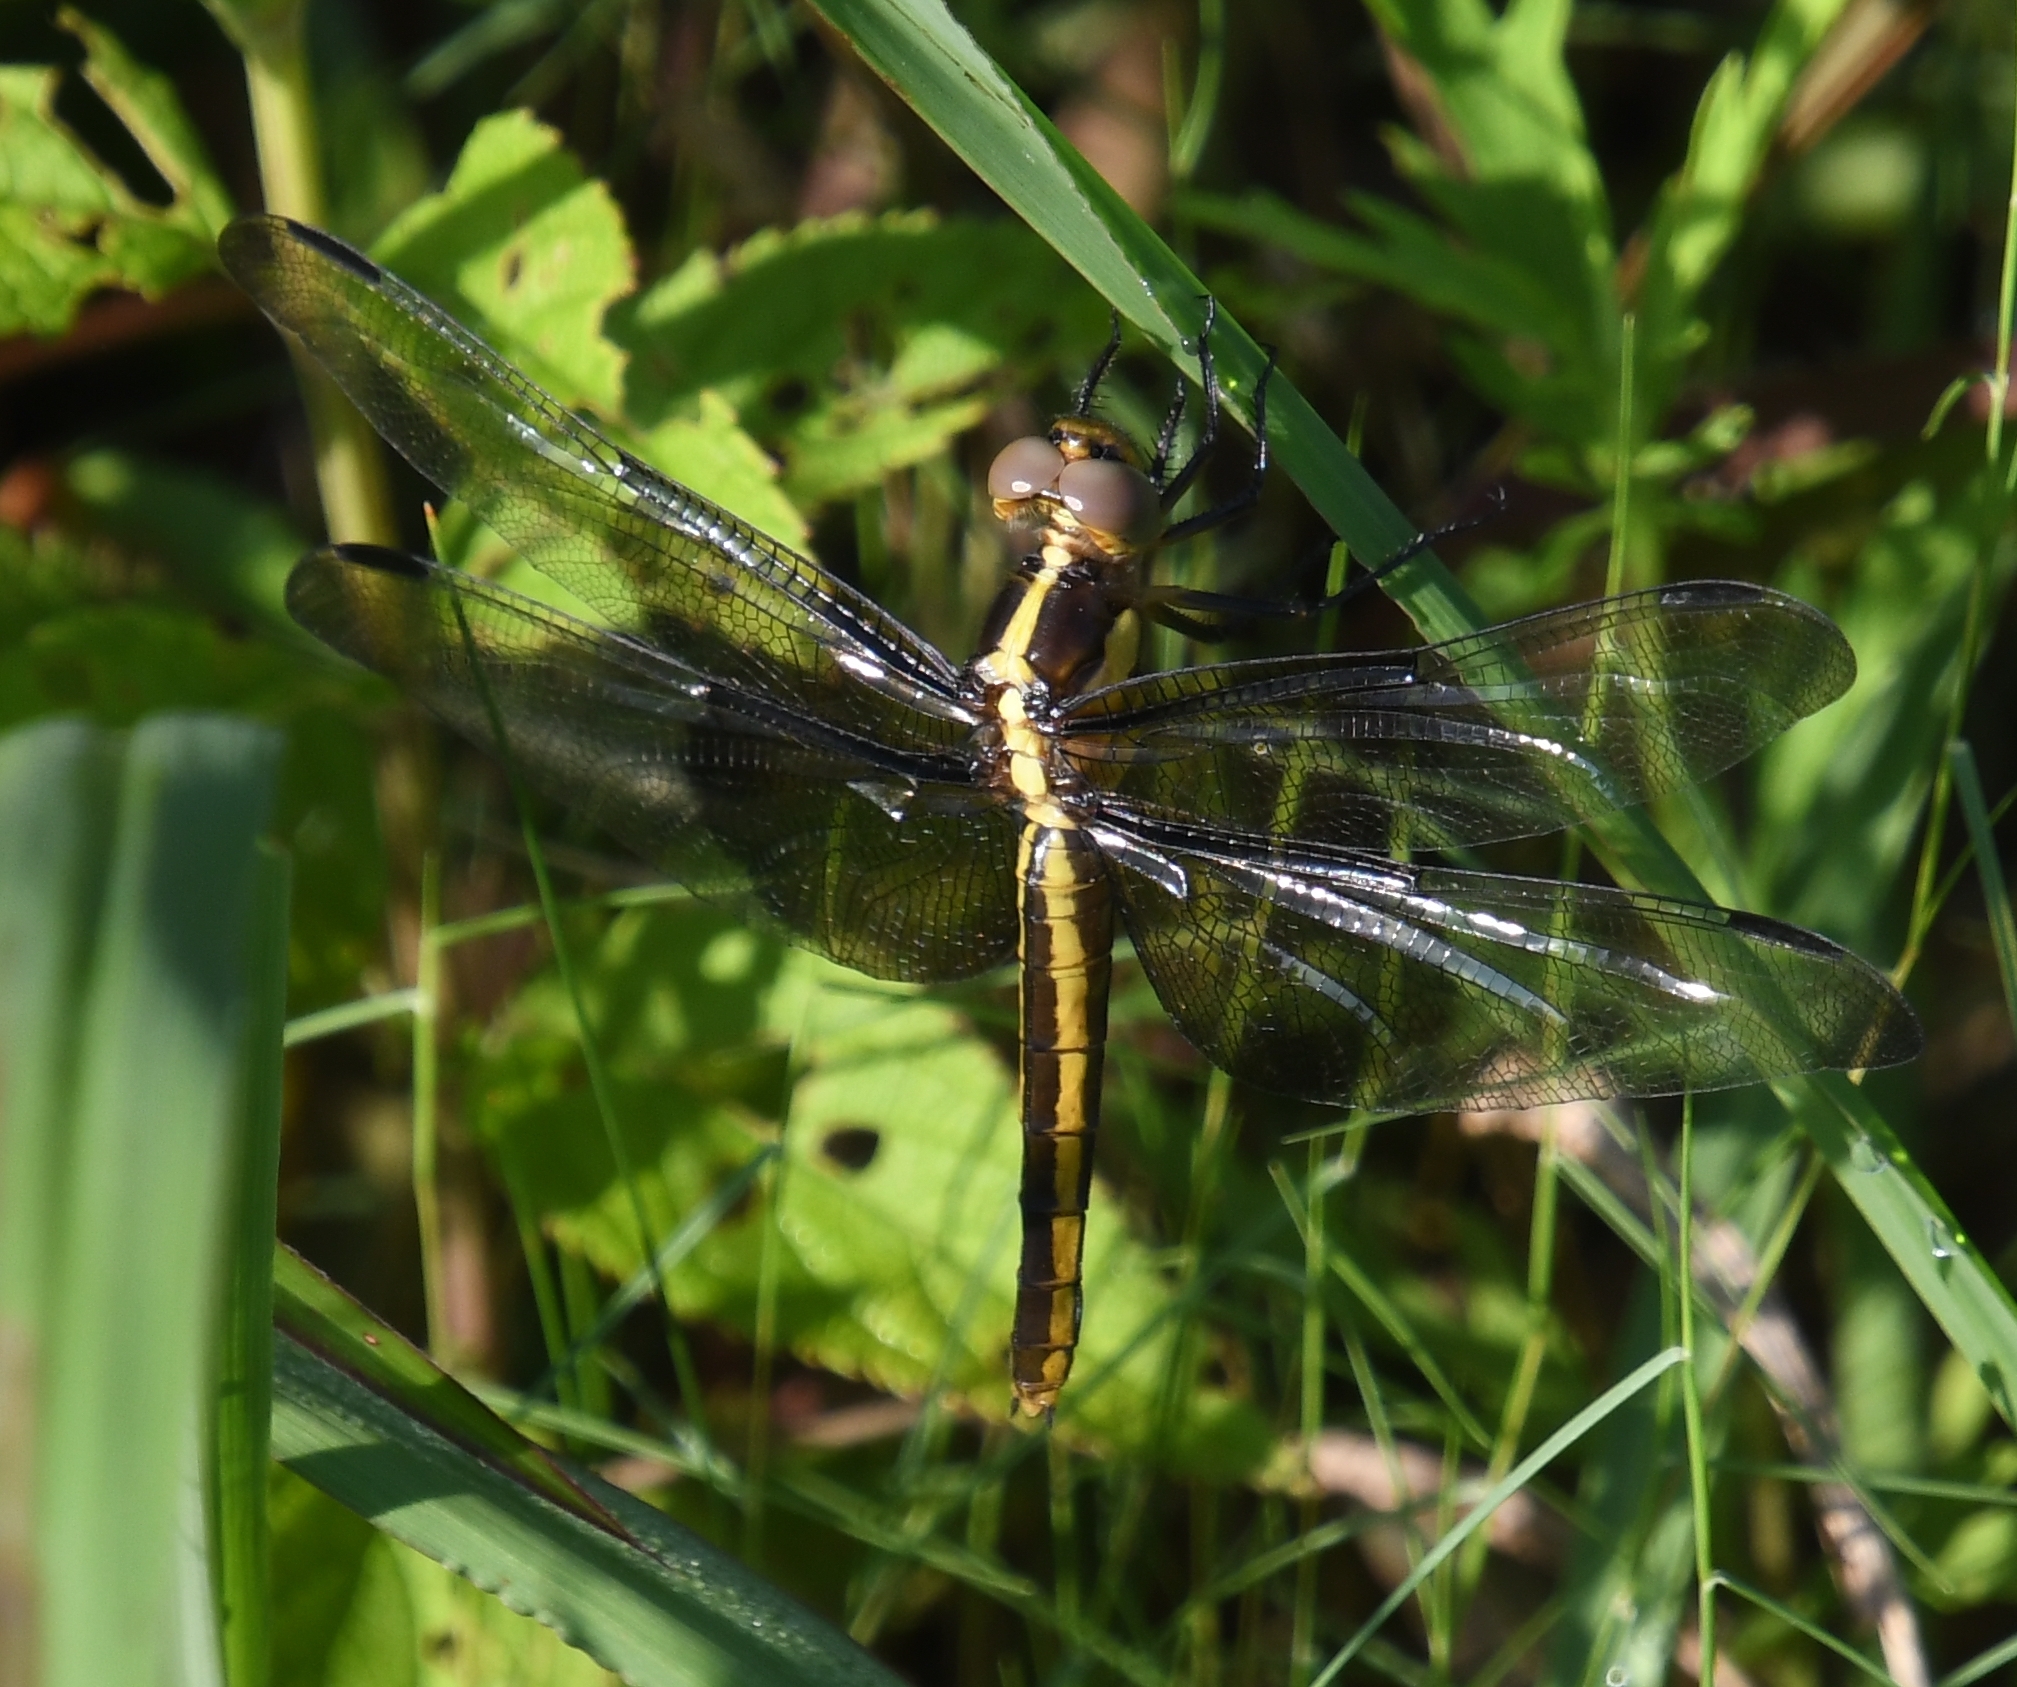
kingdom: Animalia
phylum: Arthropoda
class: Insecta
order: Odonata
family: Libellulidae
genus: Libellula
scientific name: Libellula luctuosa
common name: Widow skimmer
